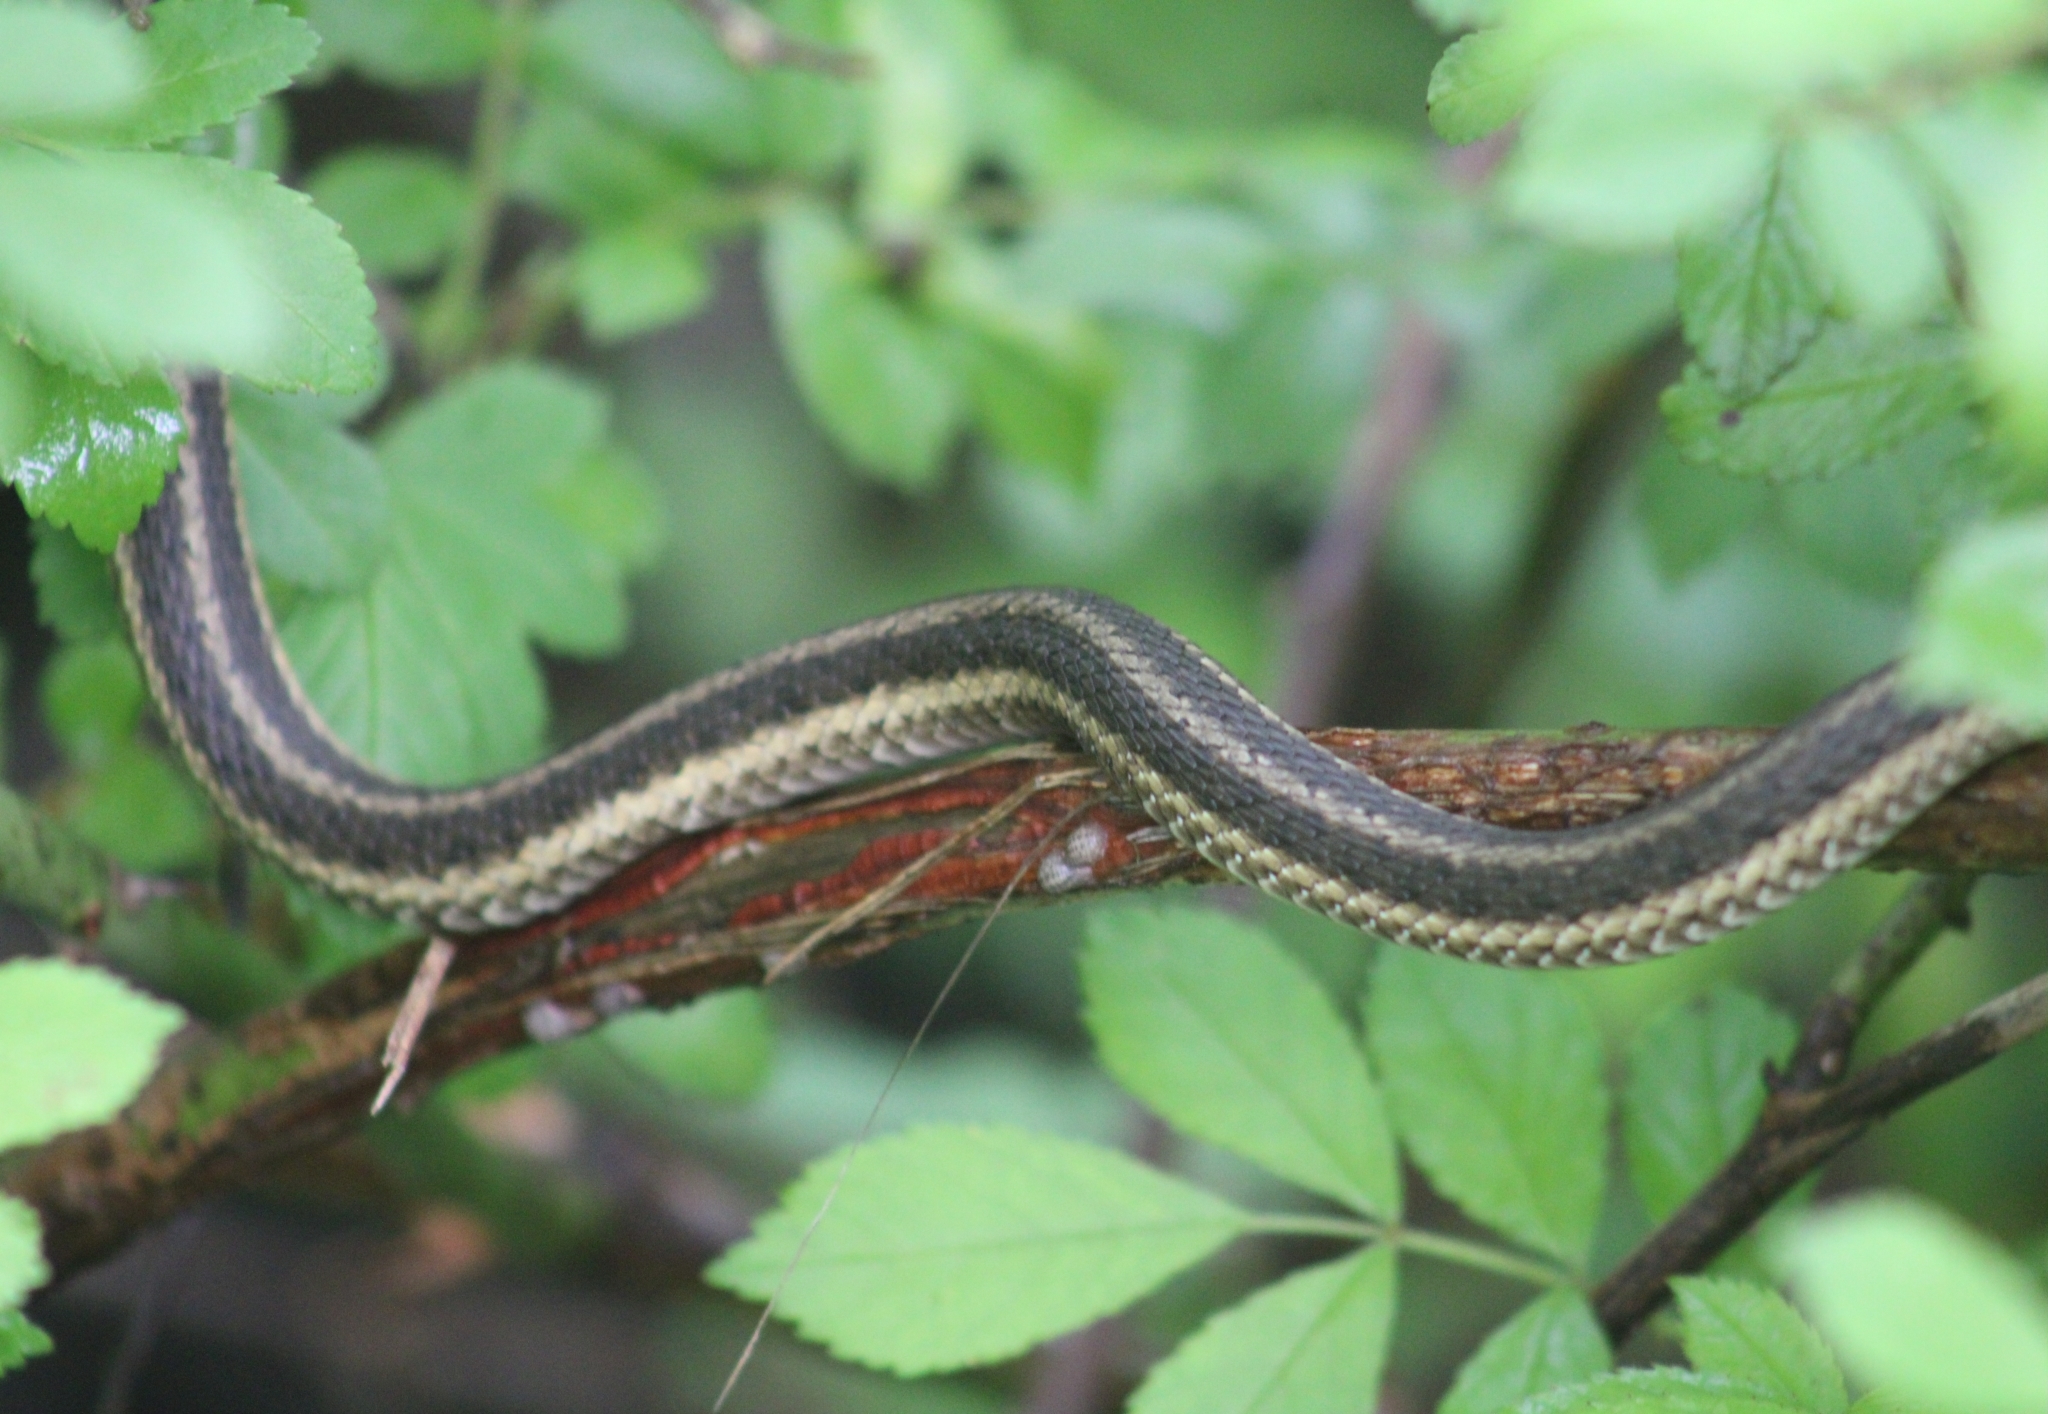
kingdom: Animalia
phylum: Chordata
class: Squamata
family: Colubridae
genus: Thamnophis
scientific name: Thamnophis sirtalis
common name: Common garter snake
